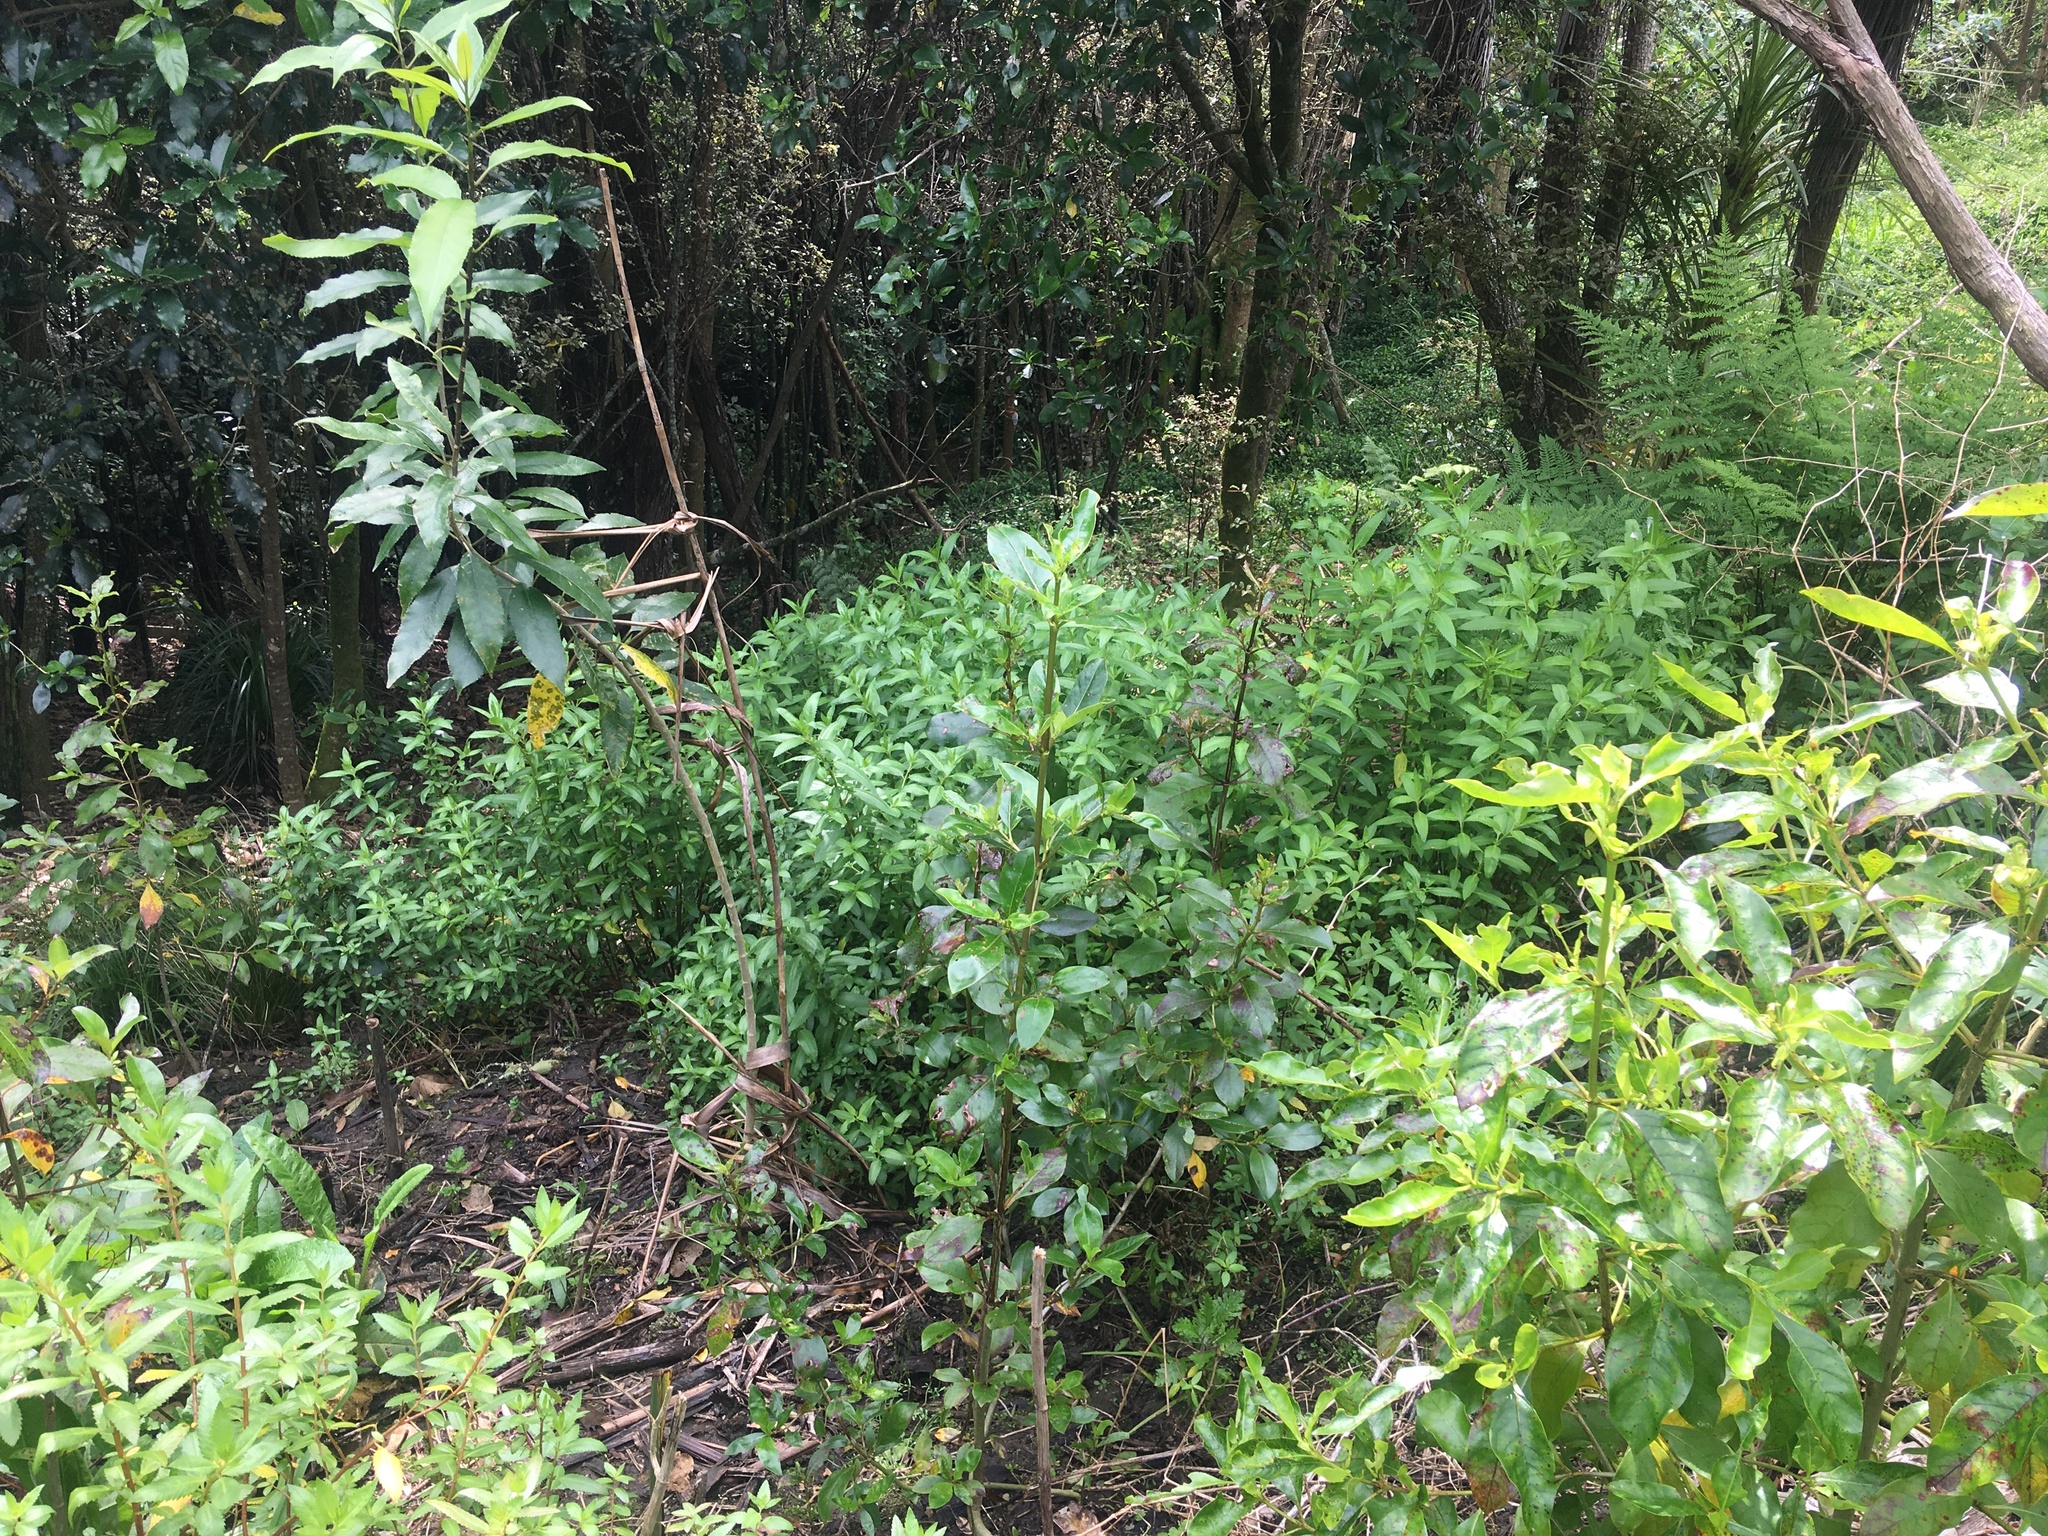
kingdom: Plantae
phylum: Tracheophyta
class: Magnoliopsida
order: Malpighiales
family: Violaceae
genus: Melicytus
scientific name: Melicytus ramiflorus
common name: Mahoe
